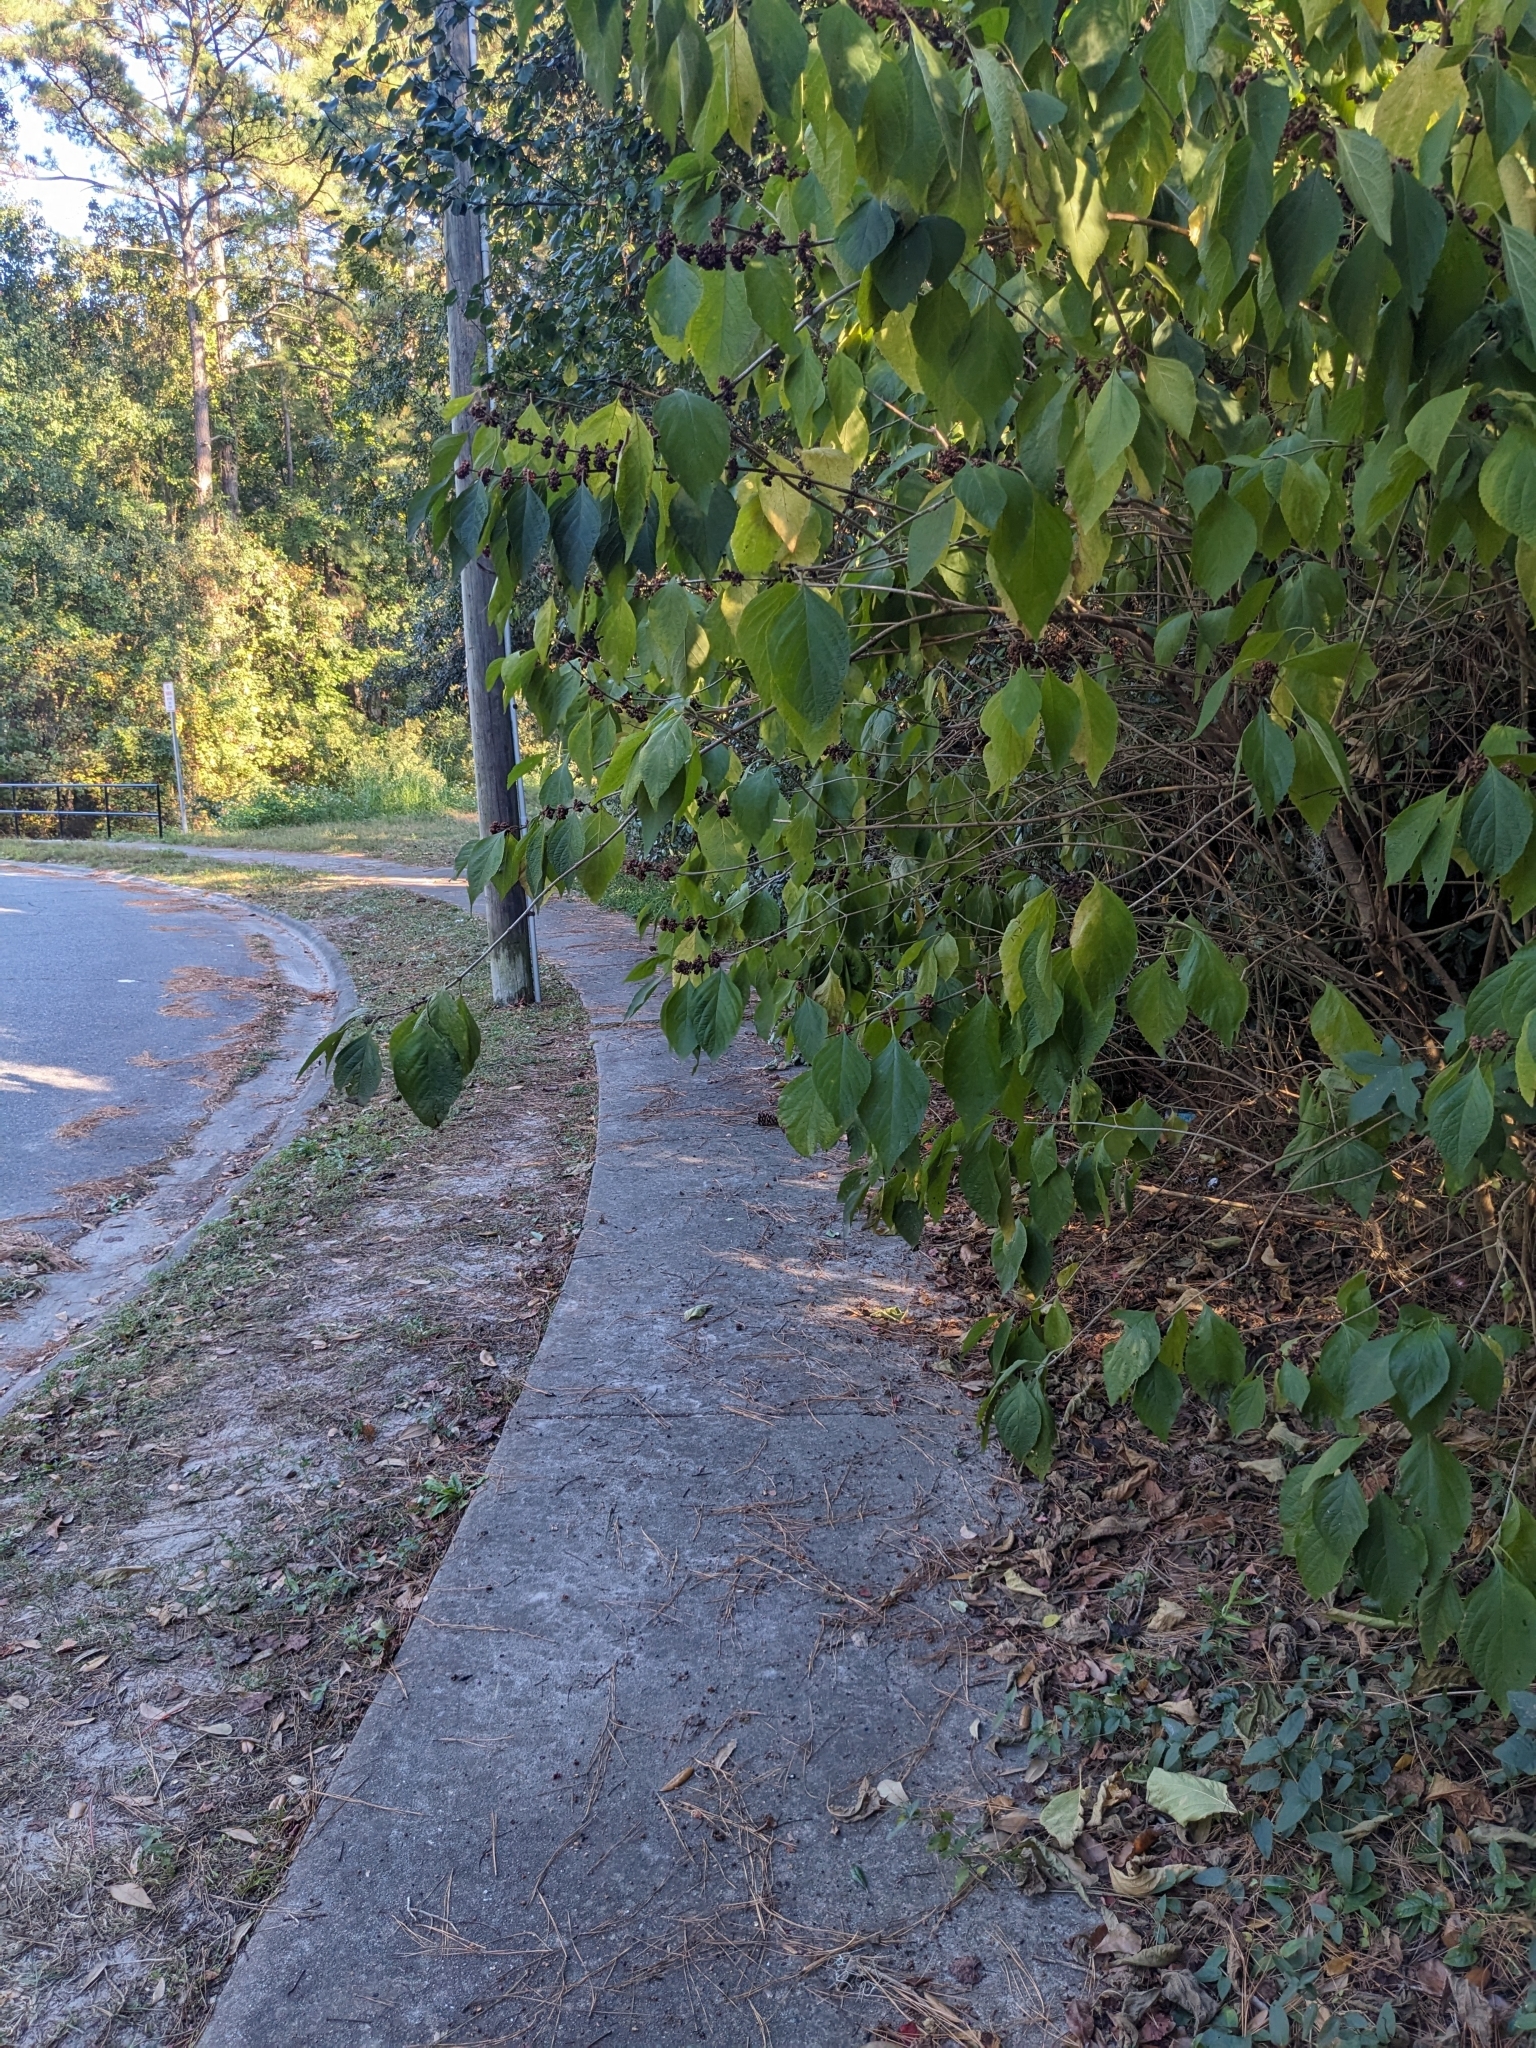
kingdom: Plantae
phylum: Tracheophyta
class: Magnoliopsida
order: Lamiales
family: Lamiaceae
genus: Callicarpa
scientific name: Callicarpa americana
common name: American beautyberry
